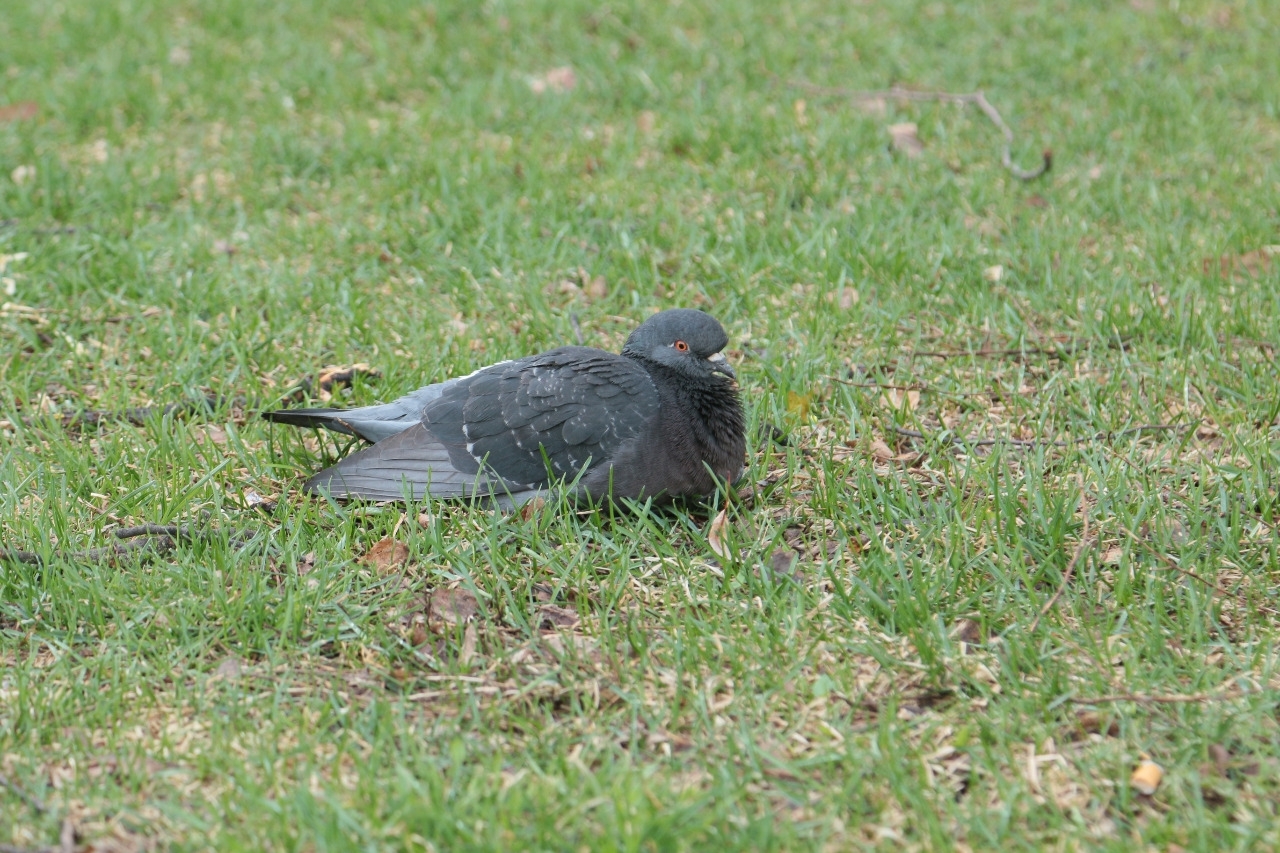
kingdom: Animalia
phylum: Chordata
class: Aves
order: Columbiformes
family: Columbidae
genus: Columba
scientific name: Columba livia
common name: Rock pigeon
